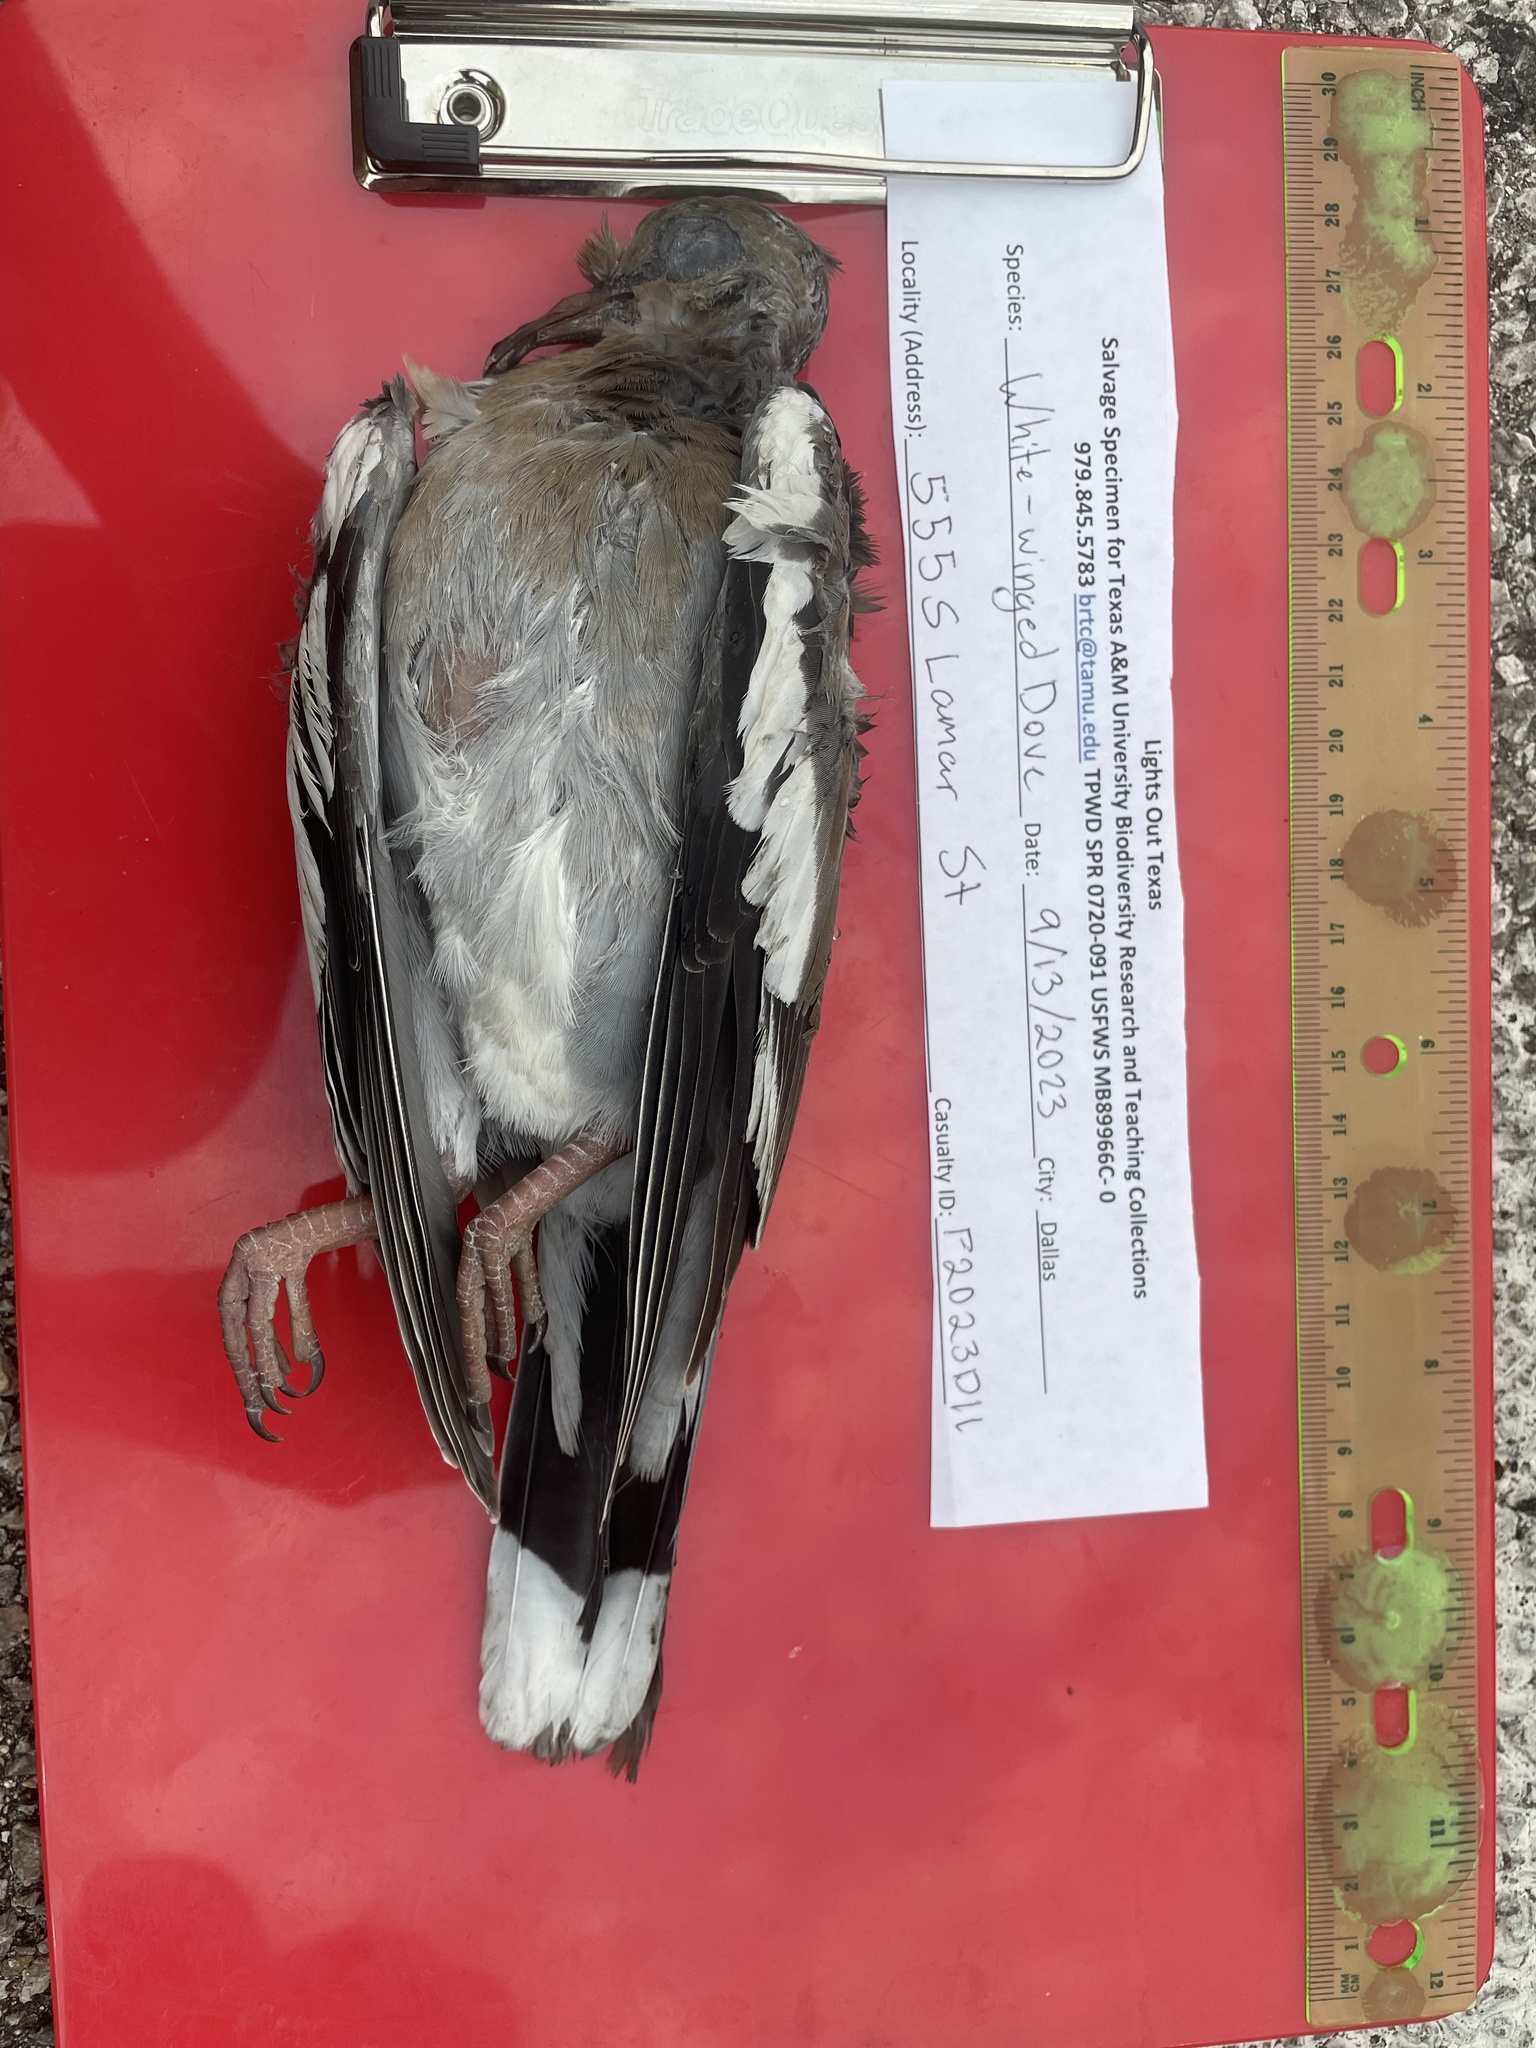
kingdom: Animalia
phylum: Chordata
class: Aves
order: Columbiformes
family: Columbidae
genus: Zenaida
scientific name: Zenaida asiatica
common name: White-winged dove
